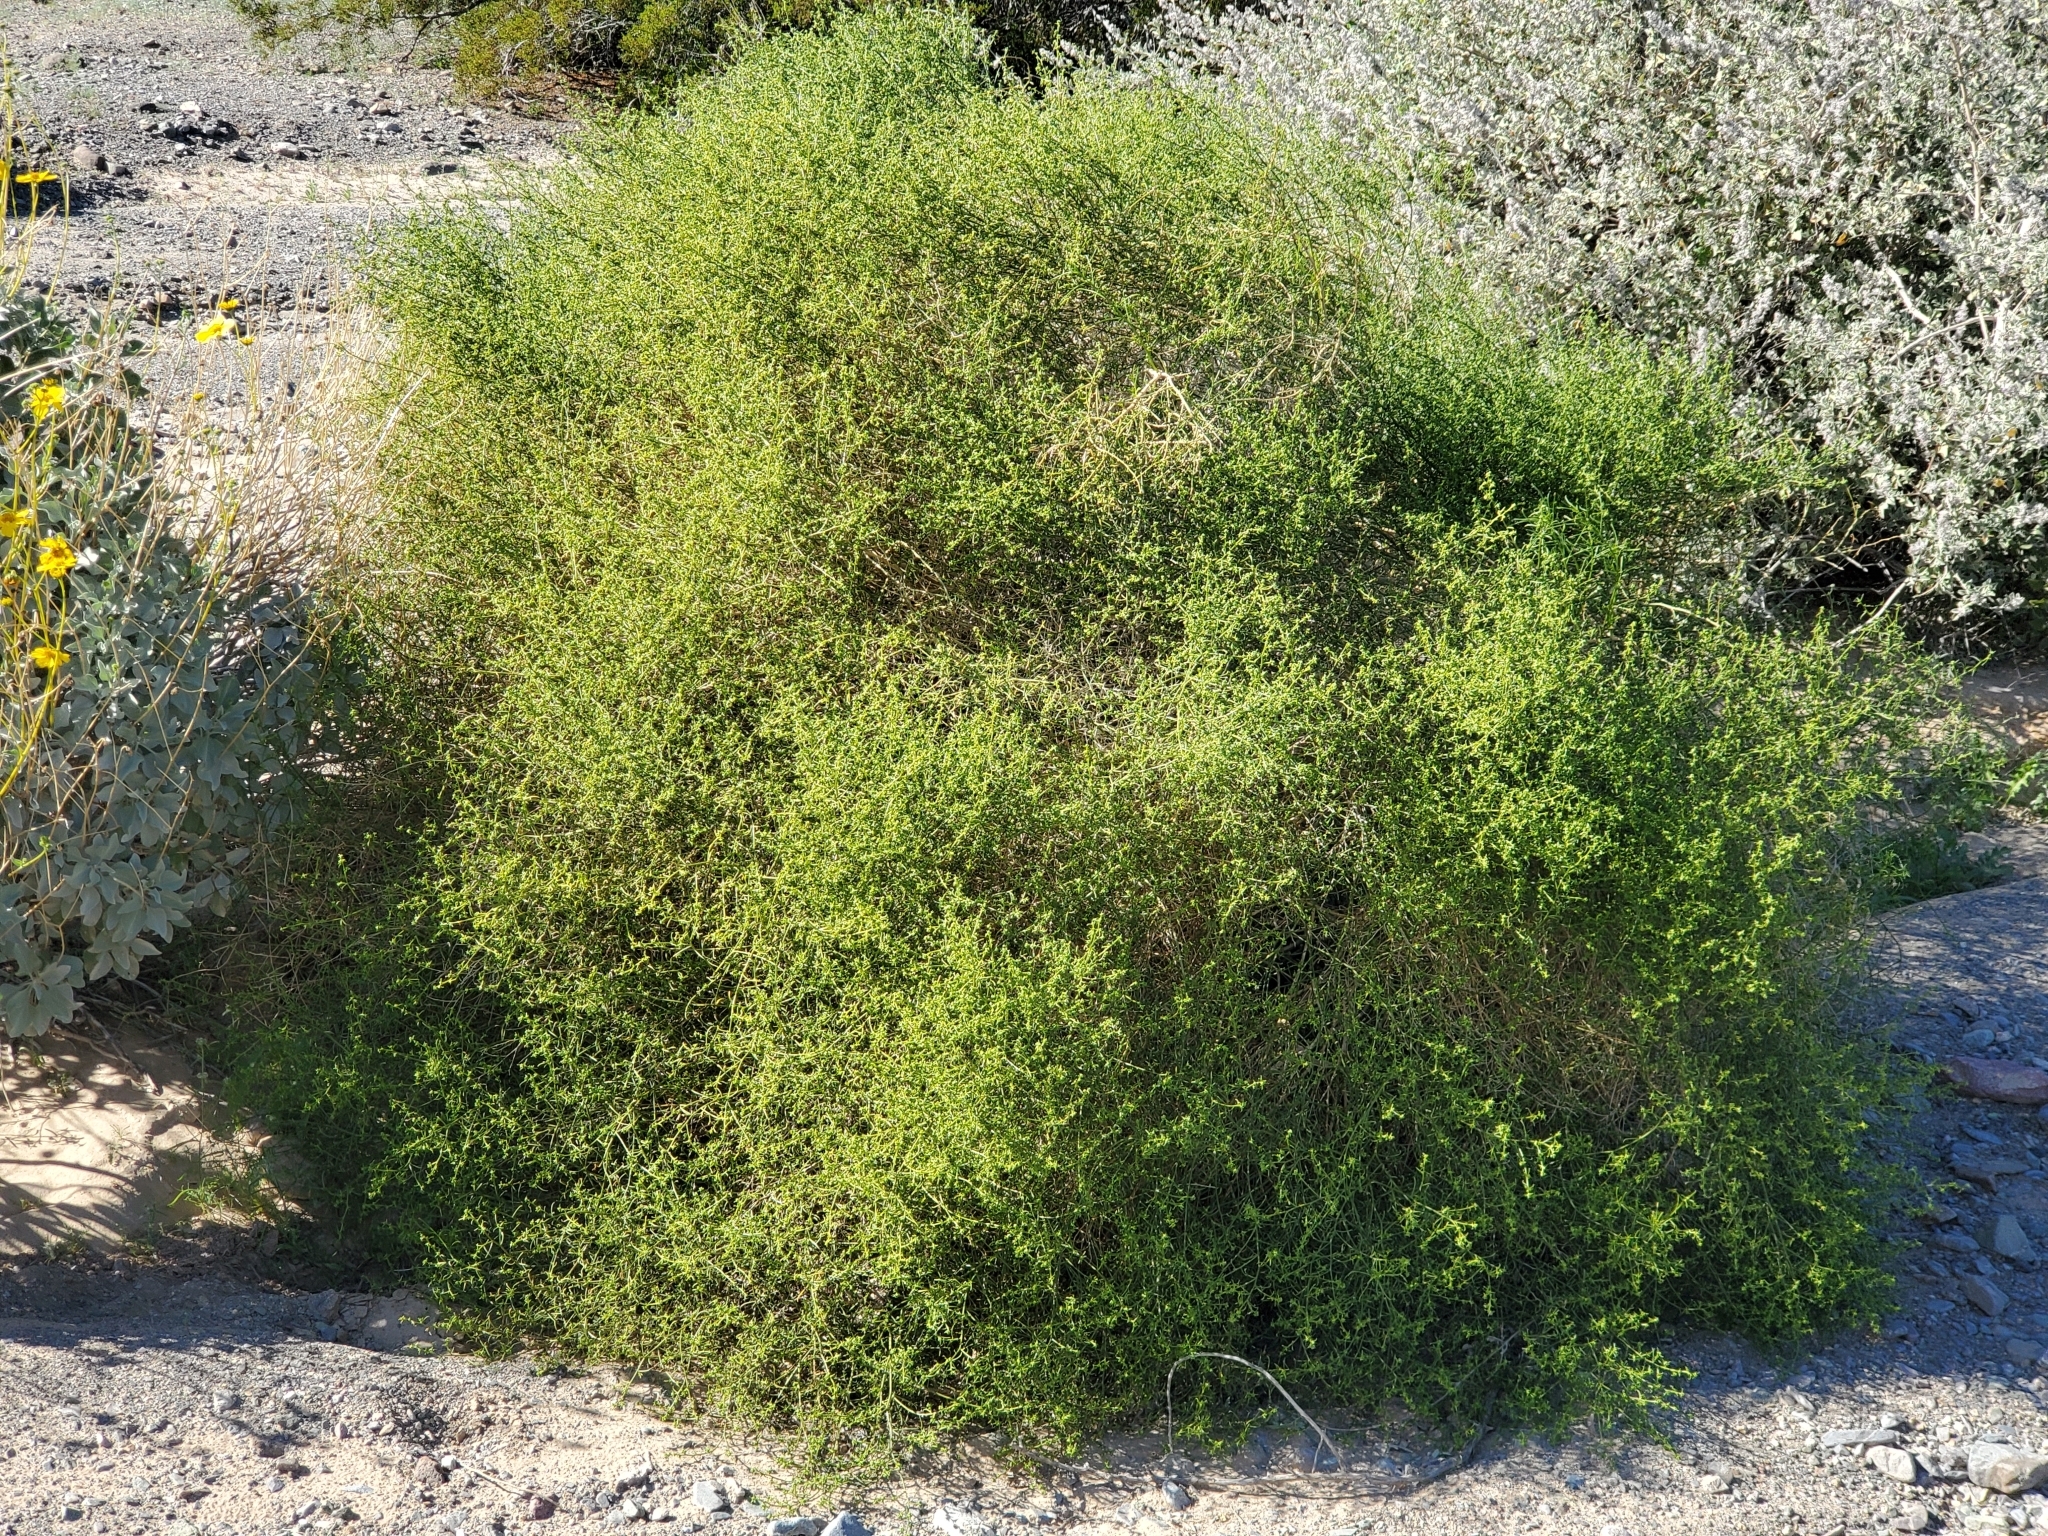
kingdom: Plantae
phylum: Tracheophyta
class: Magnoliopsida
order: Asterales
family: Asteraceae
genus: Ambrosia
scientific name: Ambrosia salsola
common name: Burrobrush
